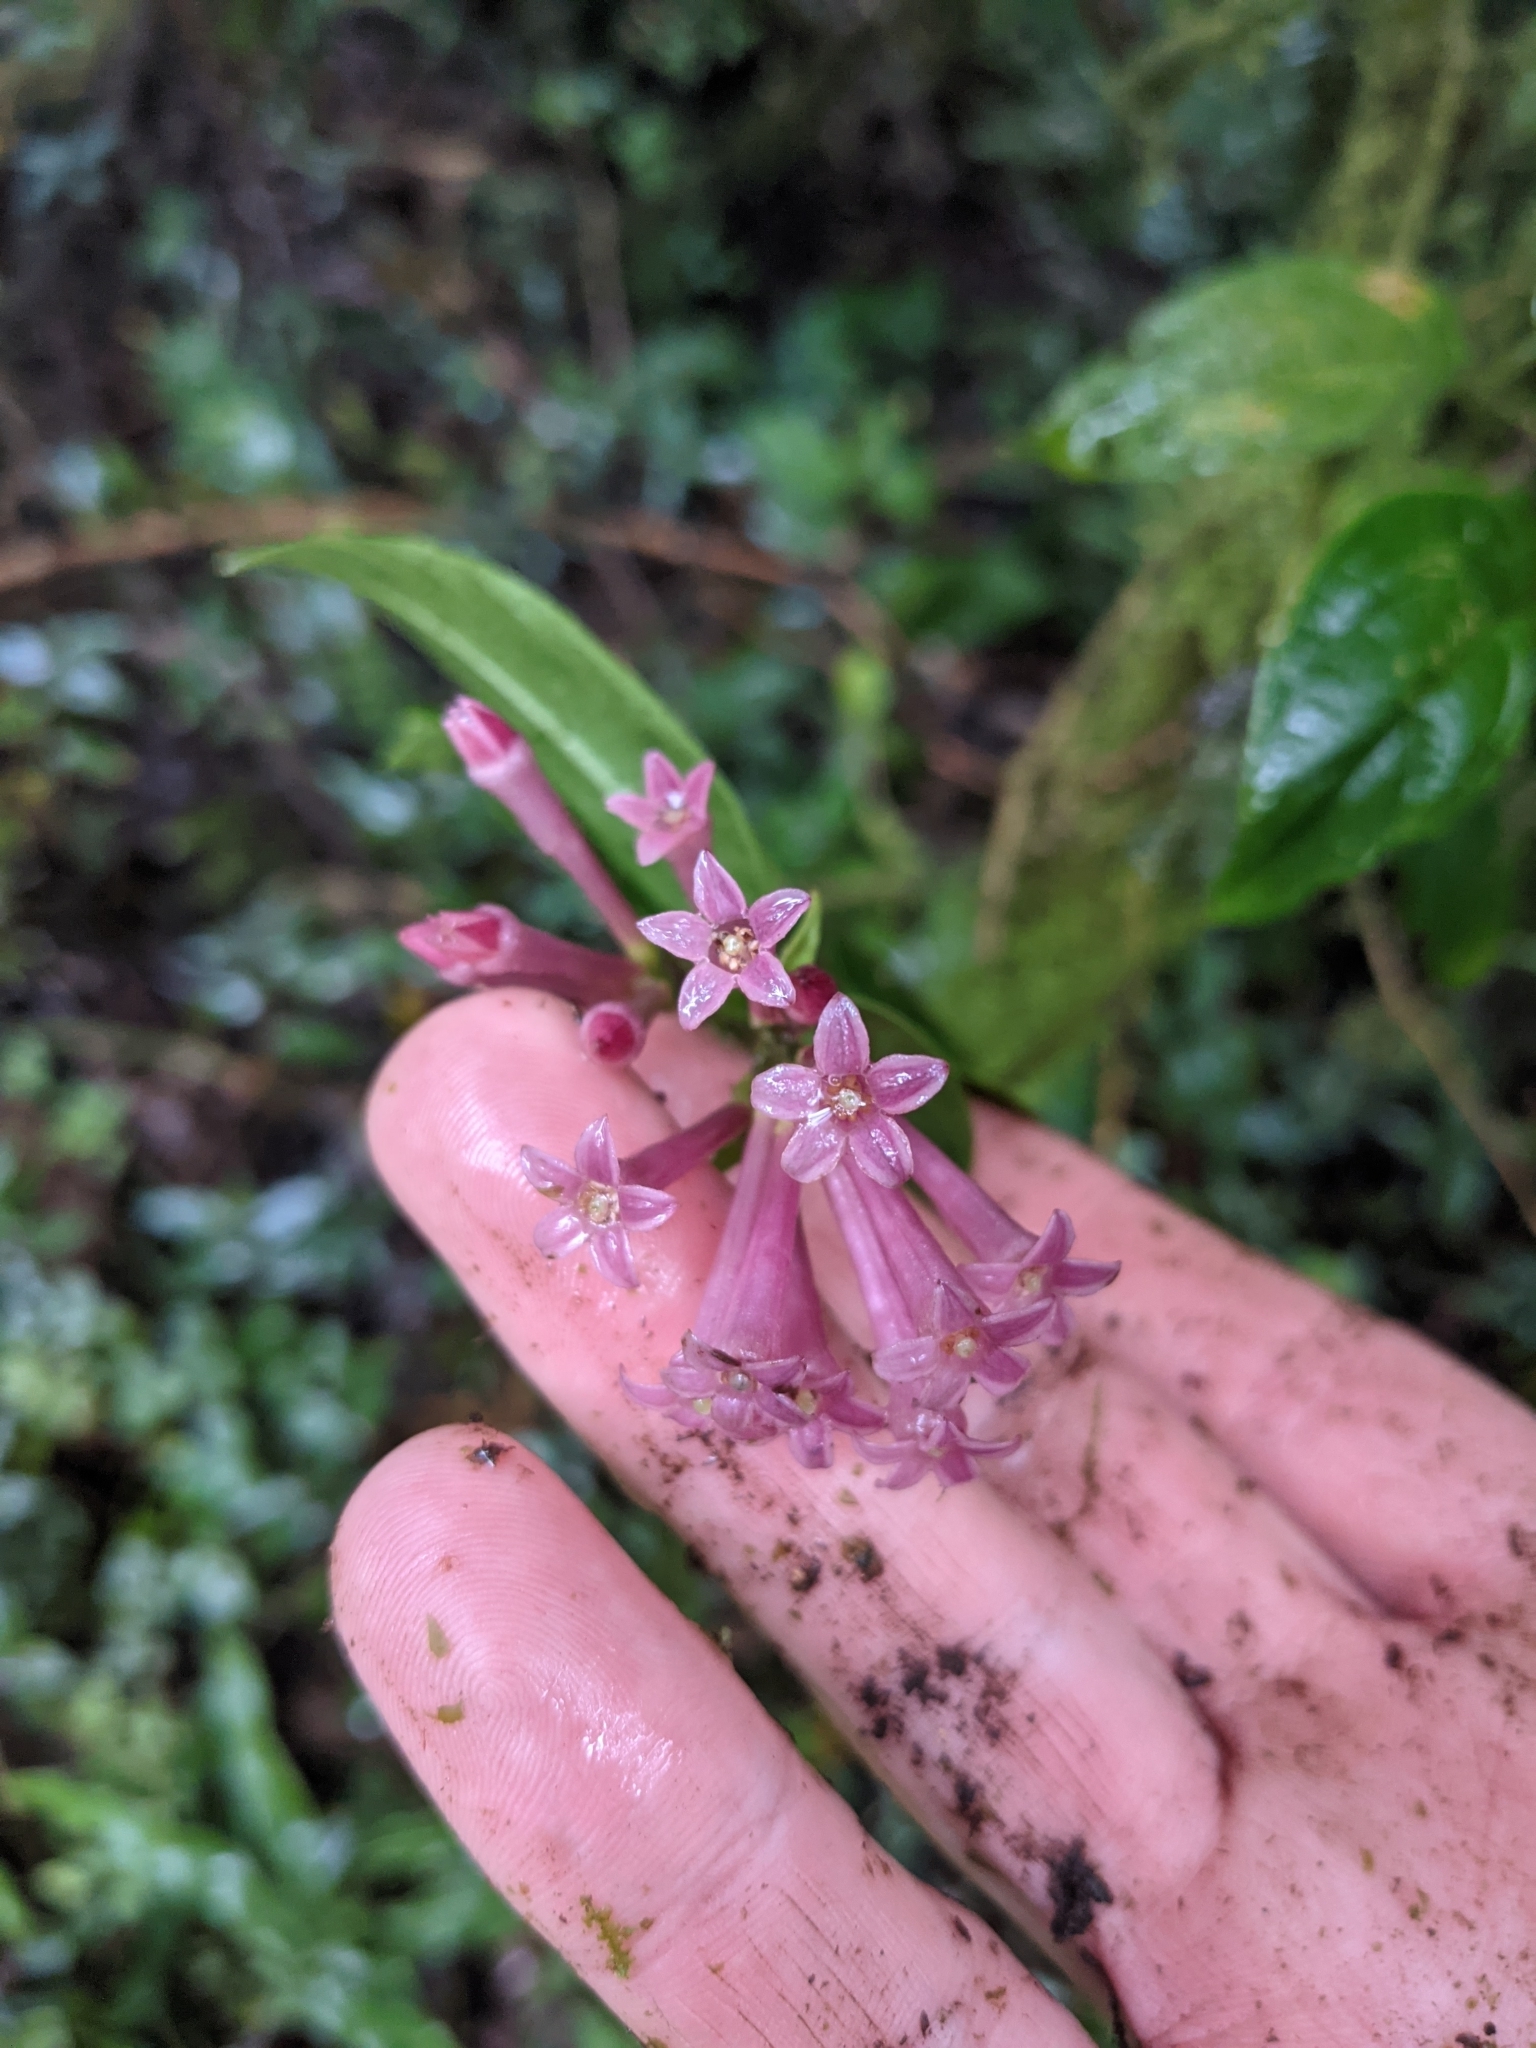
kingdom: Plantae
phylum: Tracheophyta
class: Magnoliopsida
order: Solanales
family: Solanaceae
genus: Cestrum
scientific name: Cestrum poasanum
